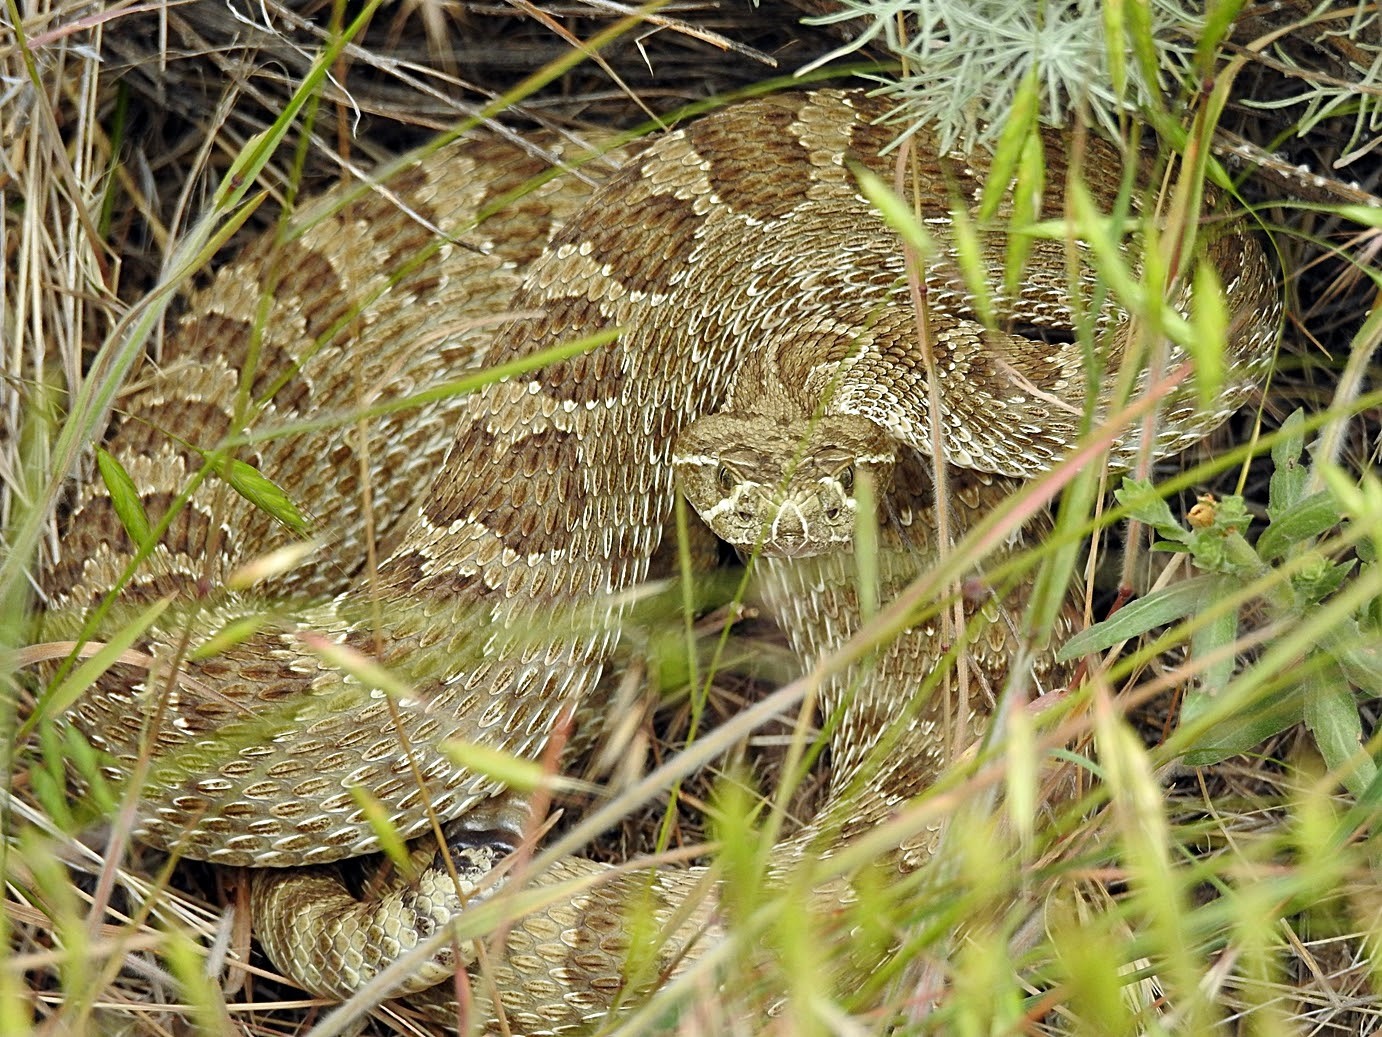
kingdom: Animalia
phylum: Chordata
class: Squamata
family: Viperidae
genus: Crotalus
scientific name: Crotalus viridis
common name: Prairie rattlesnake
